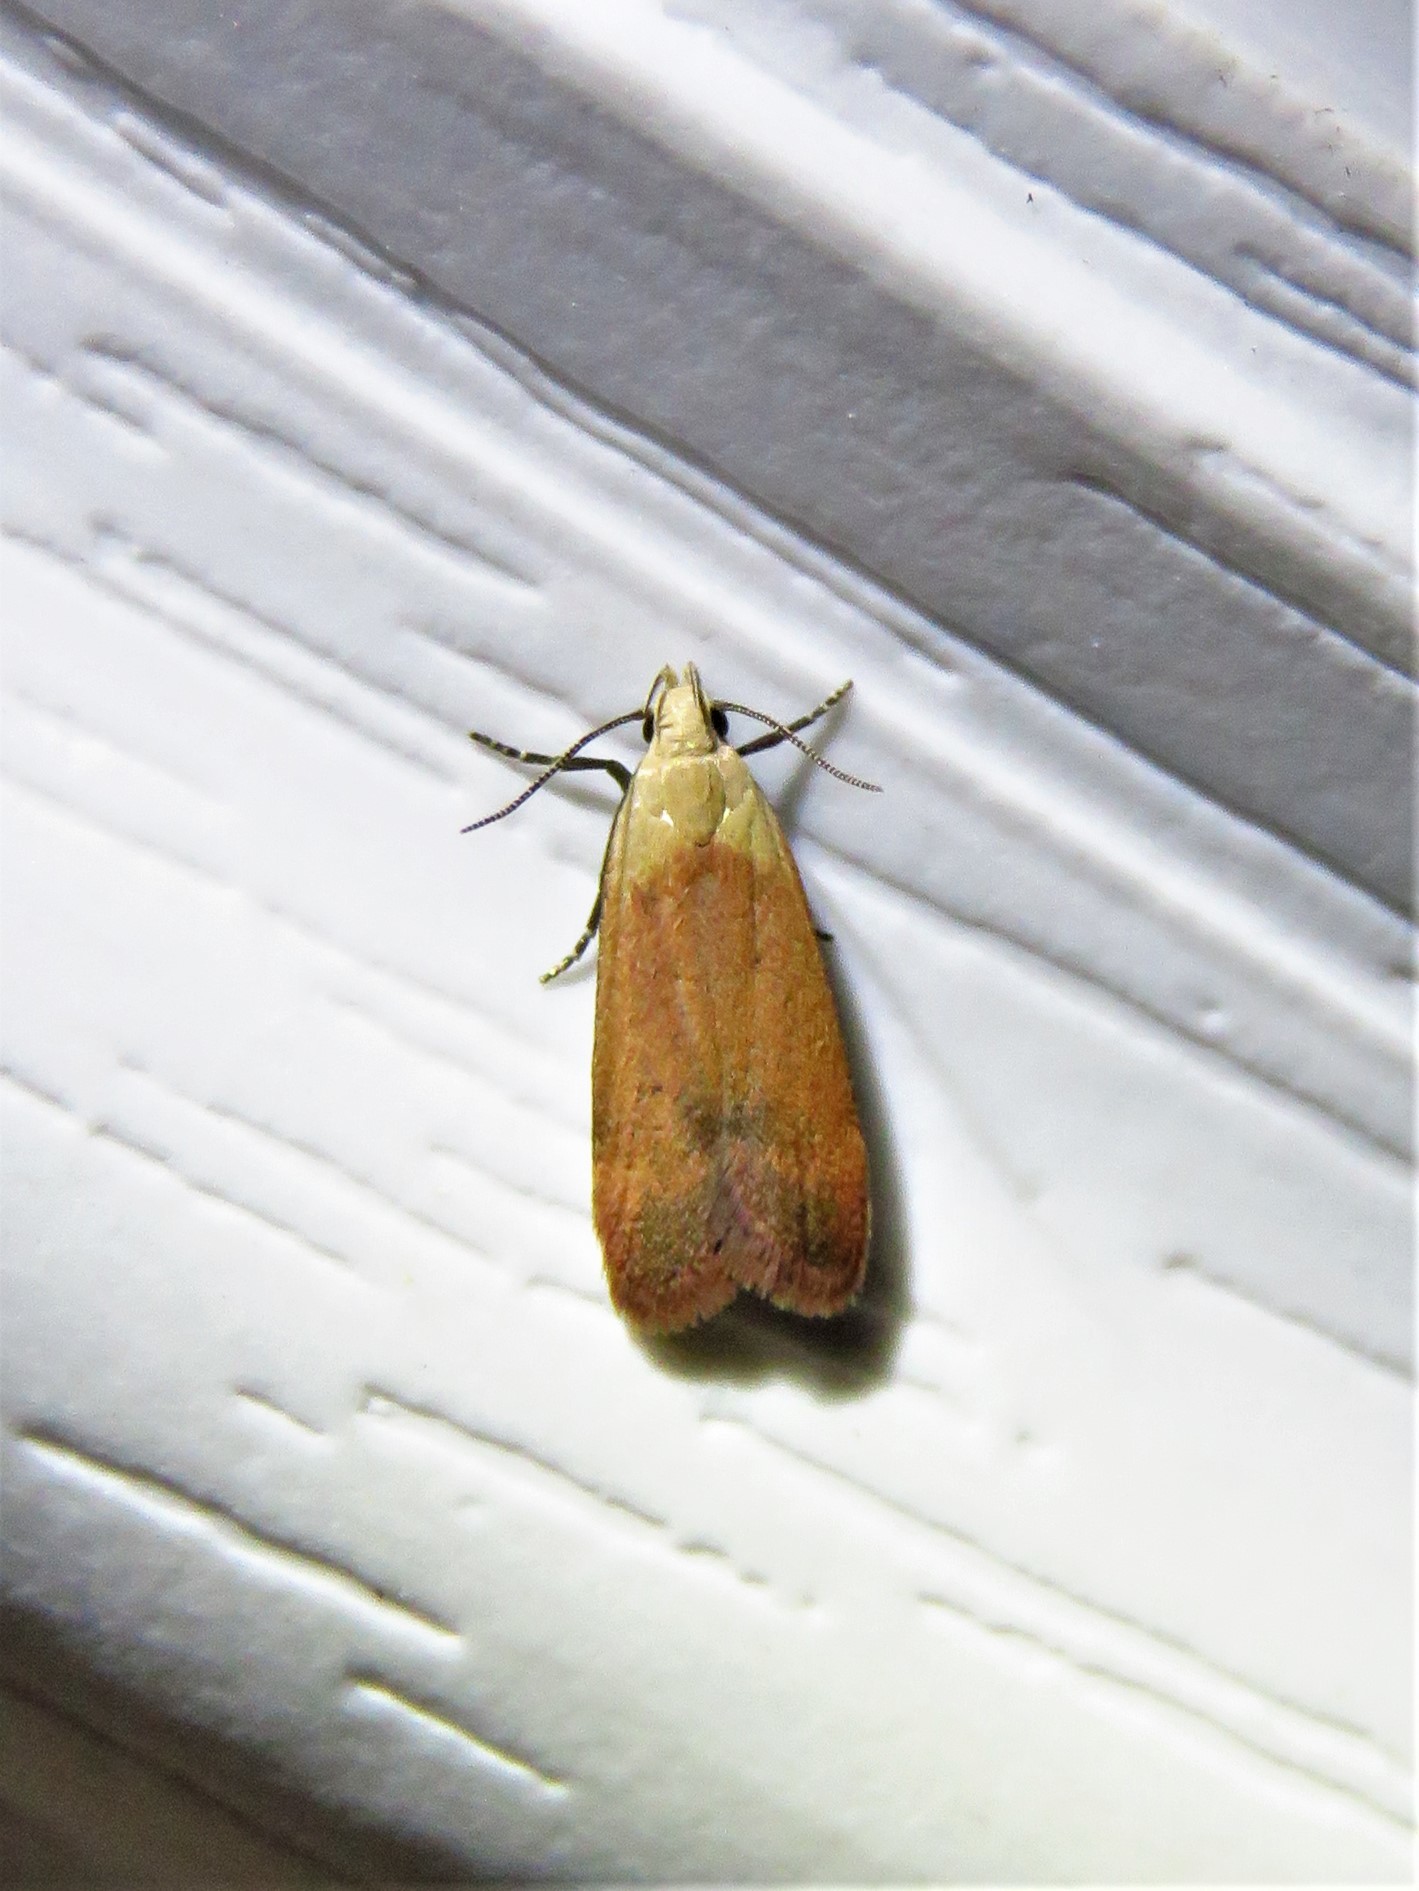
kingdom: Animalia
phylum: Arthropoda
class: Insecta
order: Lepidoptera
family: Gelechiidae
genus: Anacampsis
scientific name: Anacampsis fullonella
